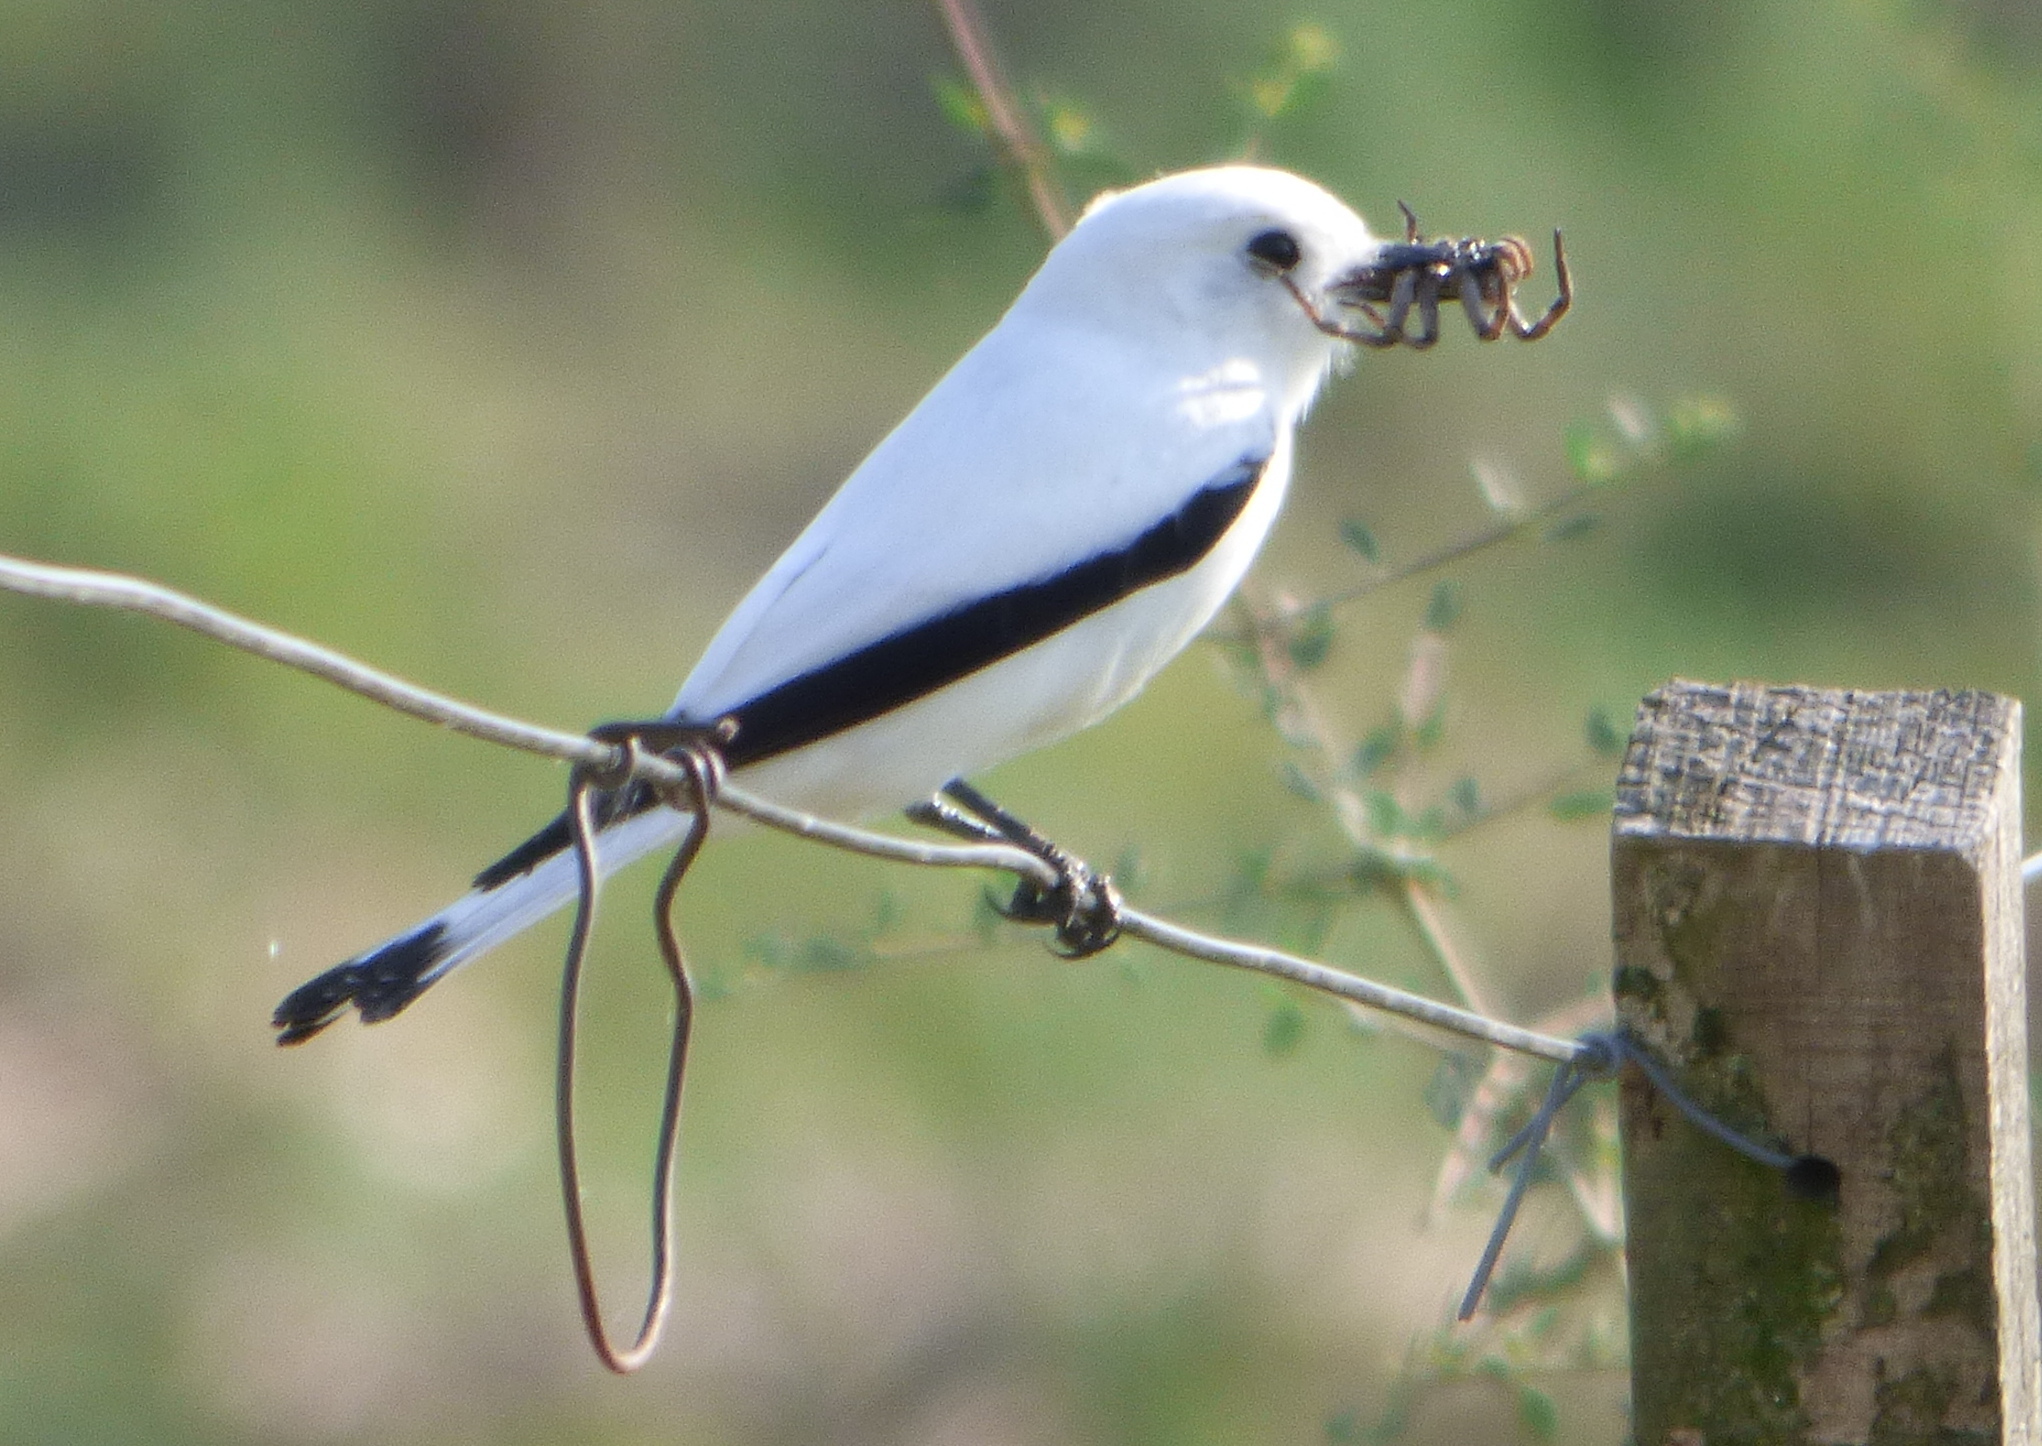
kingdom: Animalia
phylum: Chordata
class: Aves
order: Passeriformes
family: Tyrannidae
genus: Xolmis
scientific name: Xolmis irupero
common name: White monjita
